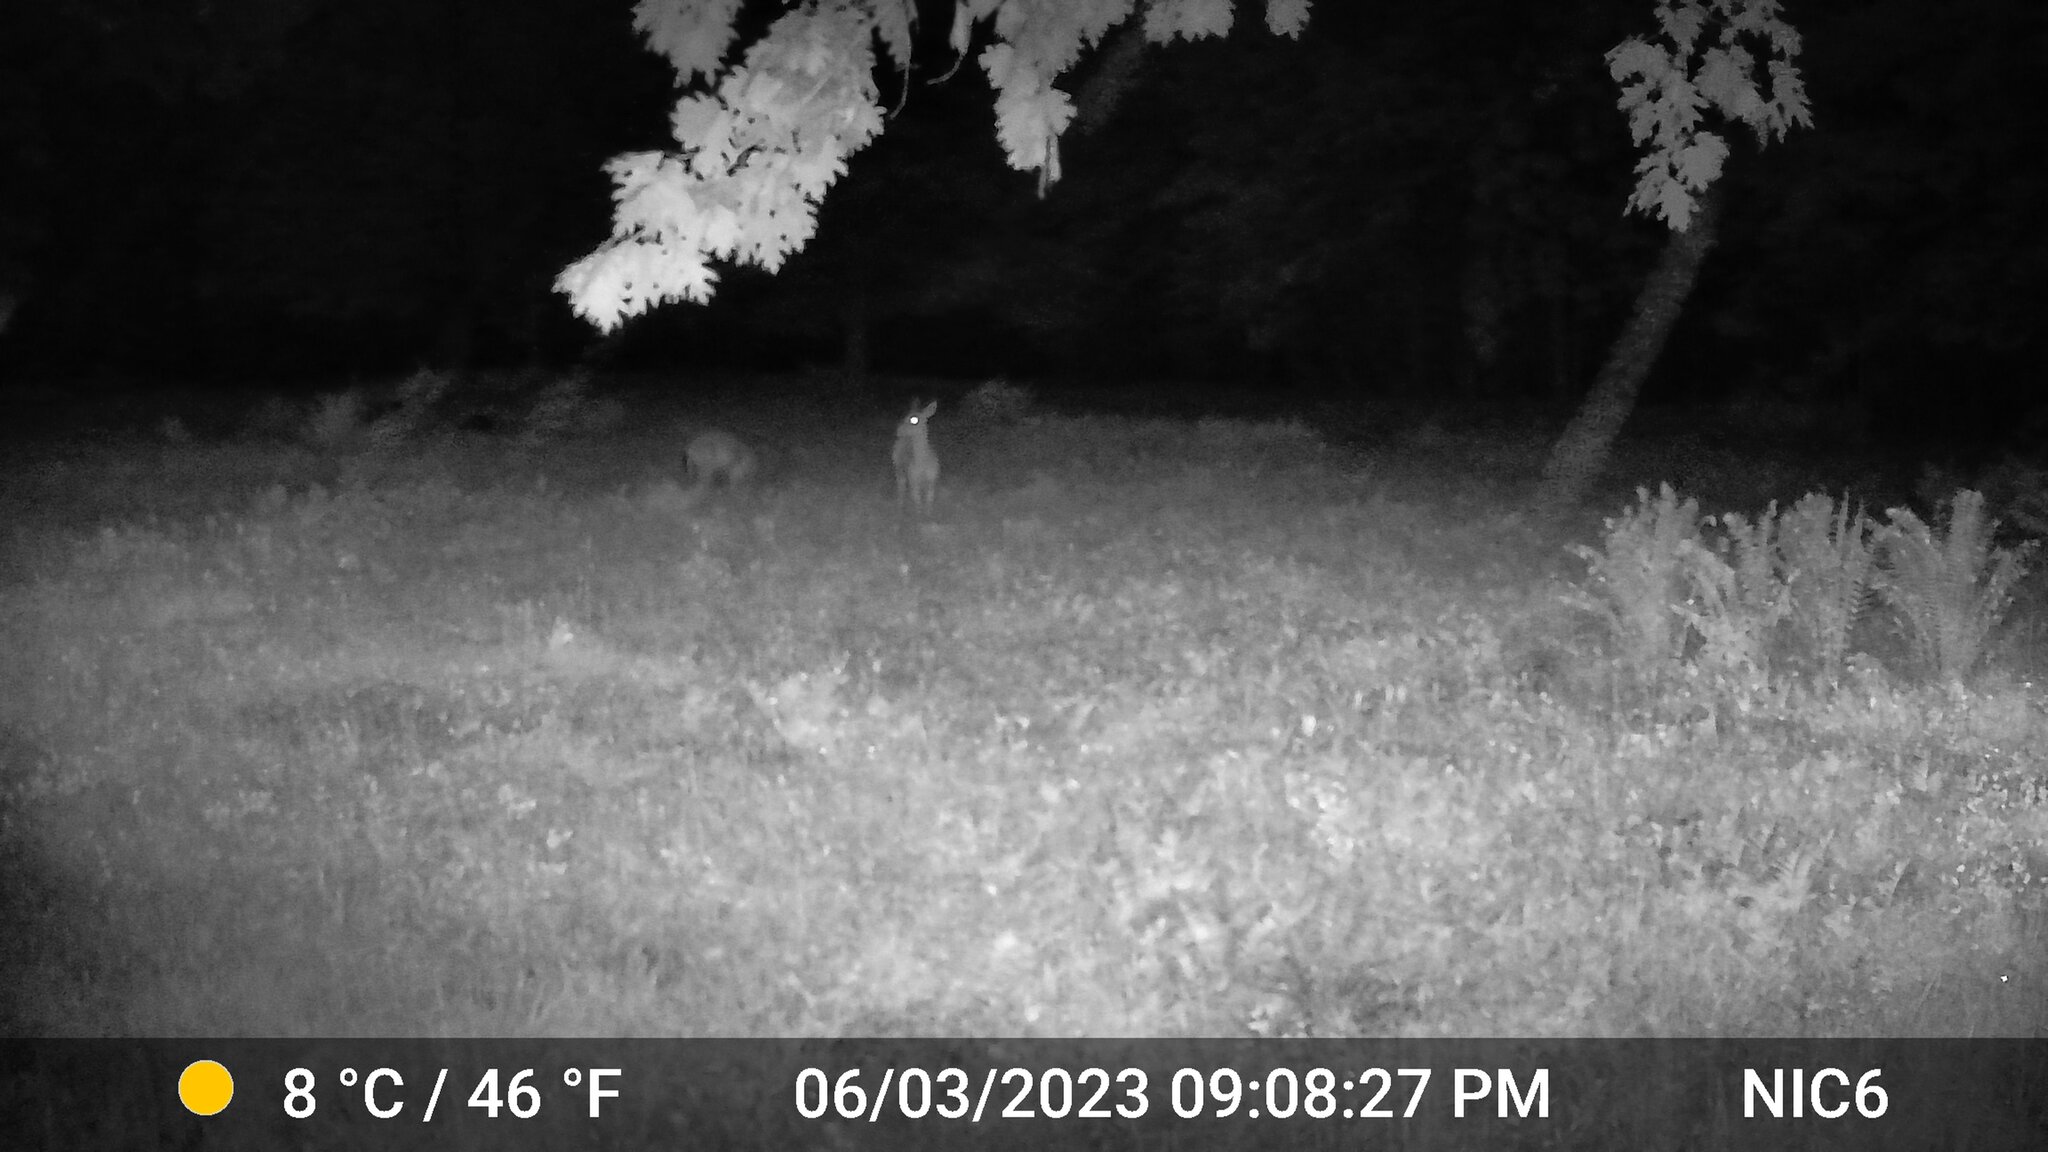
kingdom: Animalia
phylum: Chordata
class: Mammalia
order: Artiodactyla
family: Cervidae
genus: Odocoileus
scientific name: Odocoileus virginianus
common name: White-tailed deer
